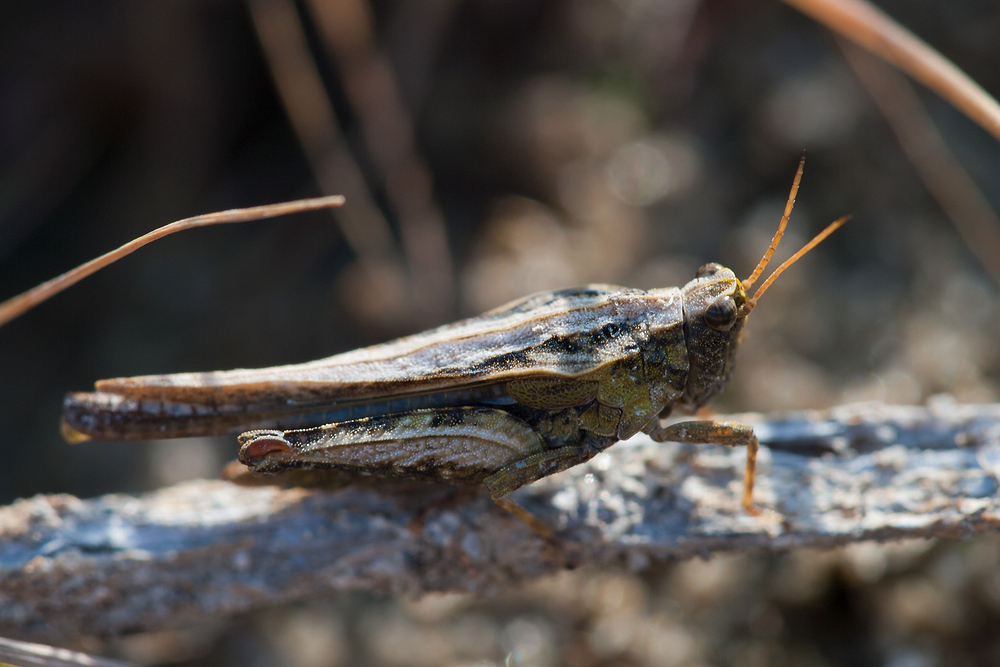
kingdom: Animalia
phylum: Arthropoda
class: Insecta
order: Orthoptera
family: Tetrigidae
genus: Tetrix
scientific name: Tetrix subulata
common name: Slender ground-hopper
